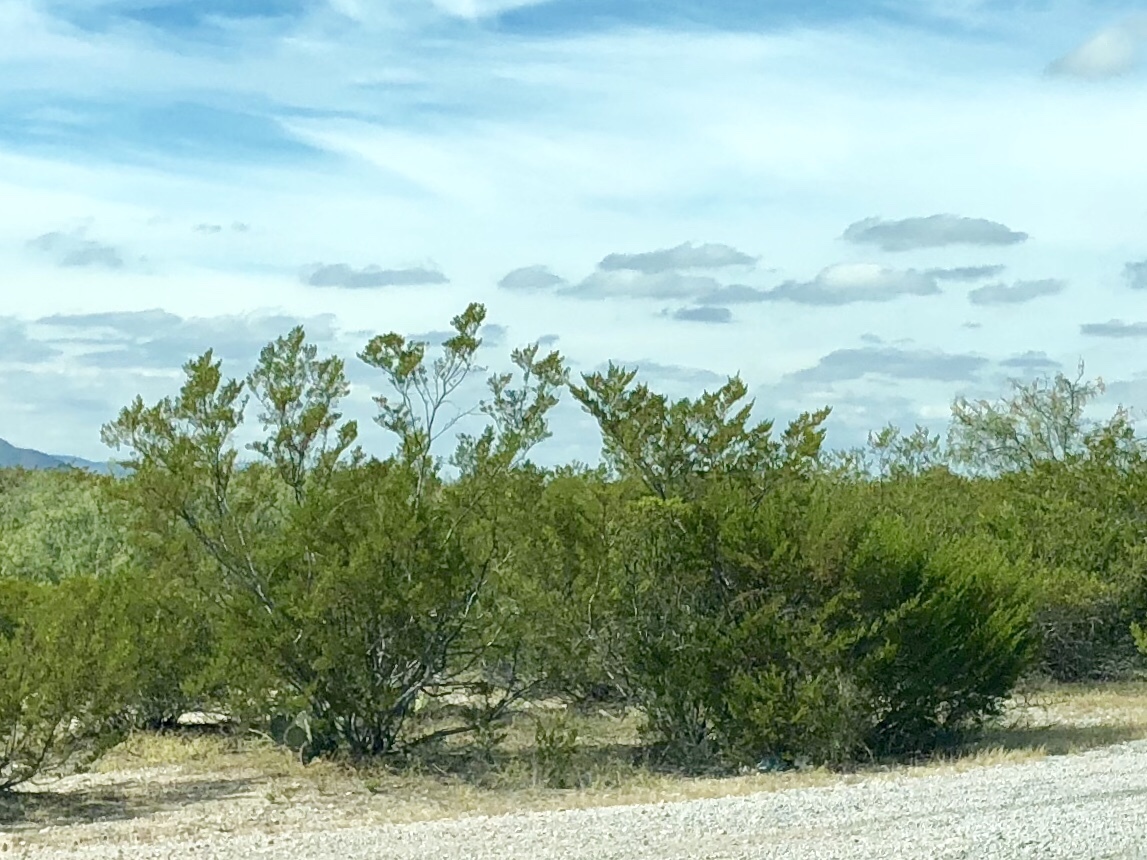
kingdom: Plantae
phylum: Tracheophyta
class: Magnoliopsida
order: Zygophyllales
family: Zygophyllaceae
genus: Larrea
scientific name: Larrea tridentata
